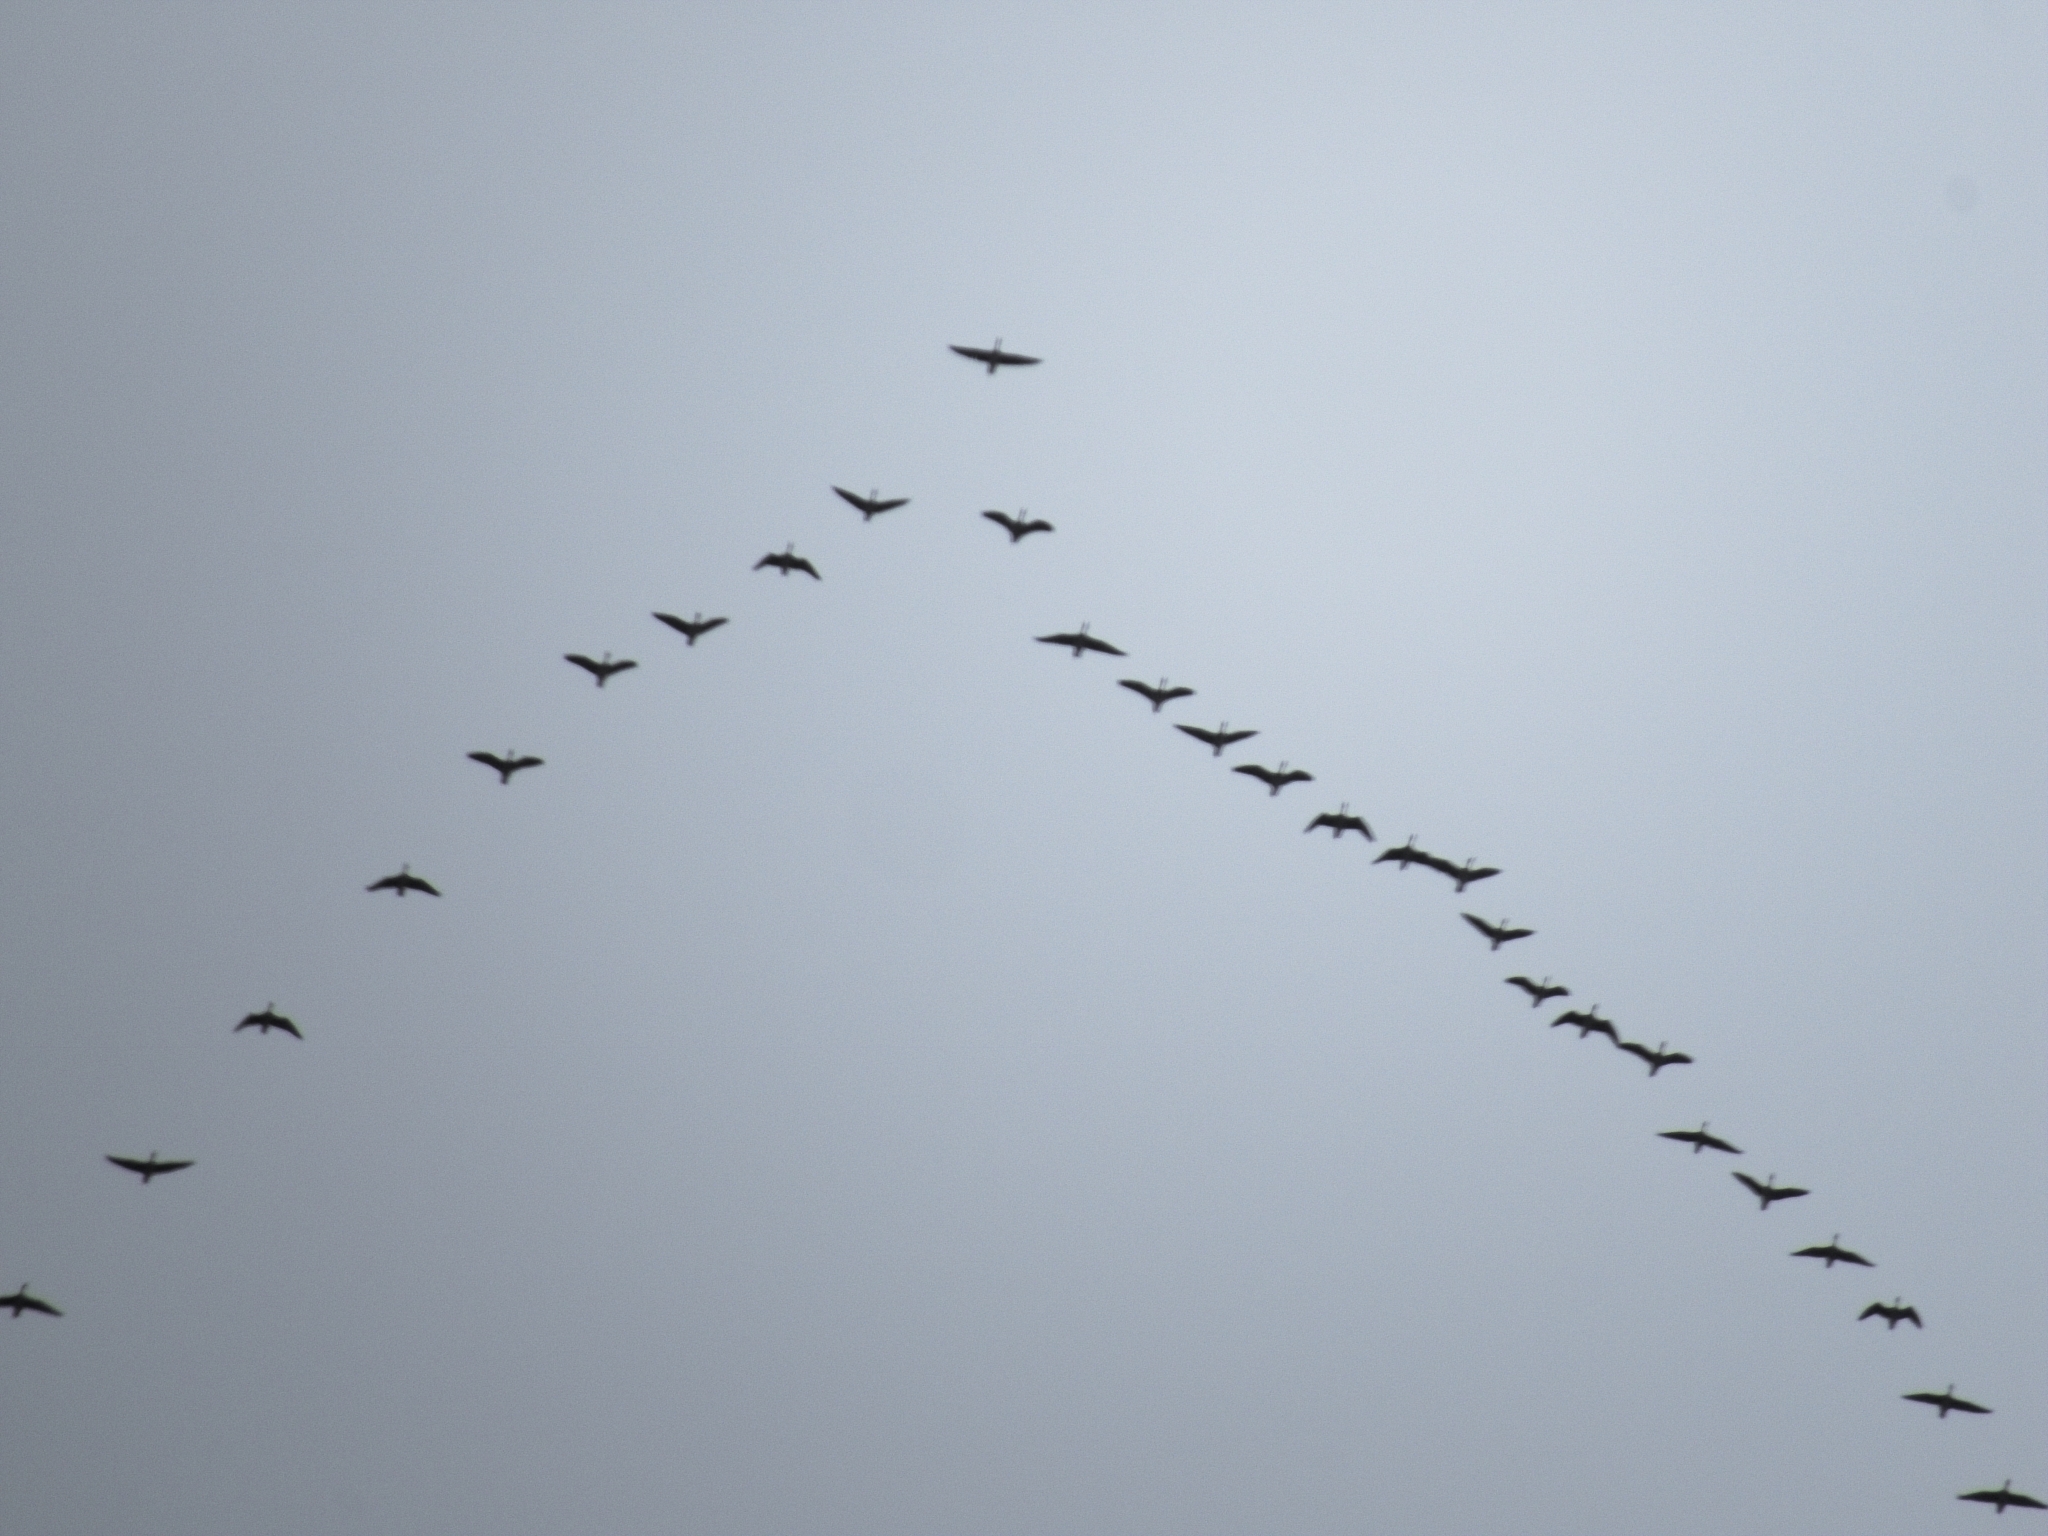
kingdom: Animalia
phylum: Chordata
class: Aves
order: Anseriformes
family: Anatidae
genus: Anser
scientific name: Anser
